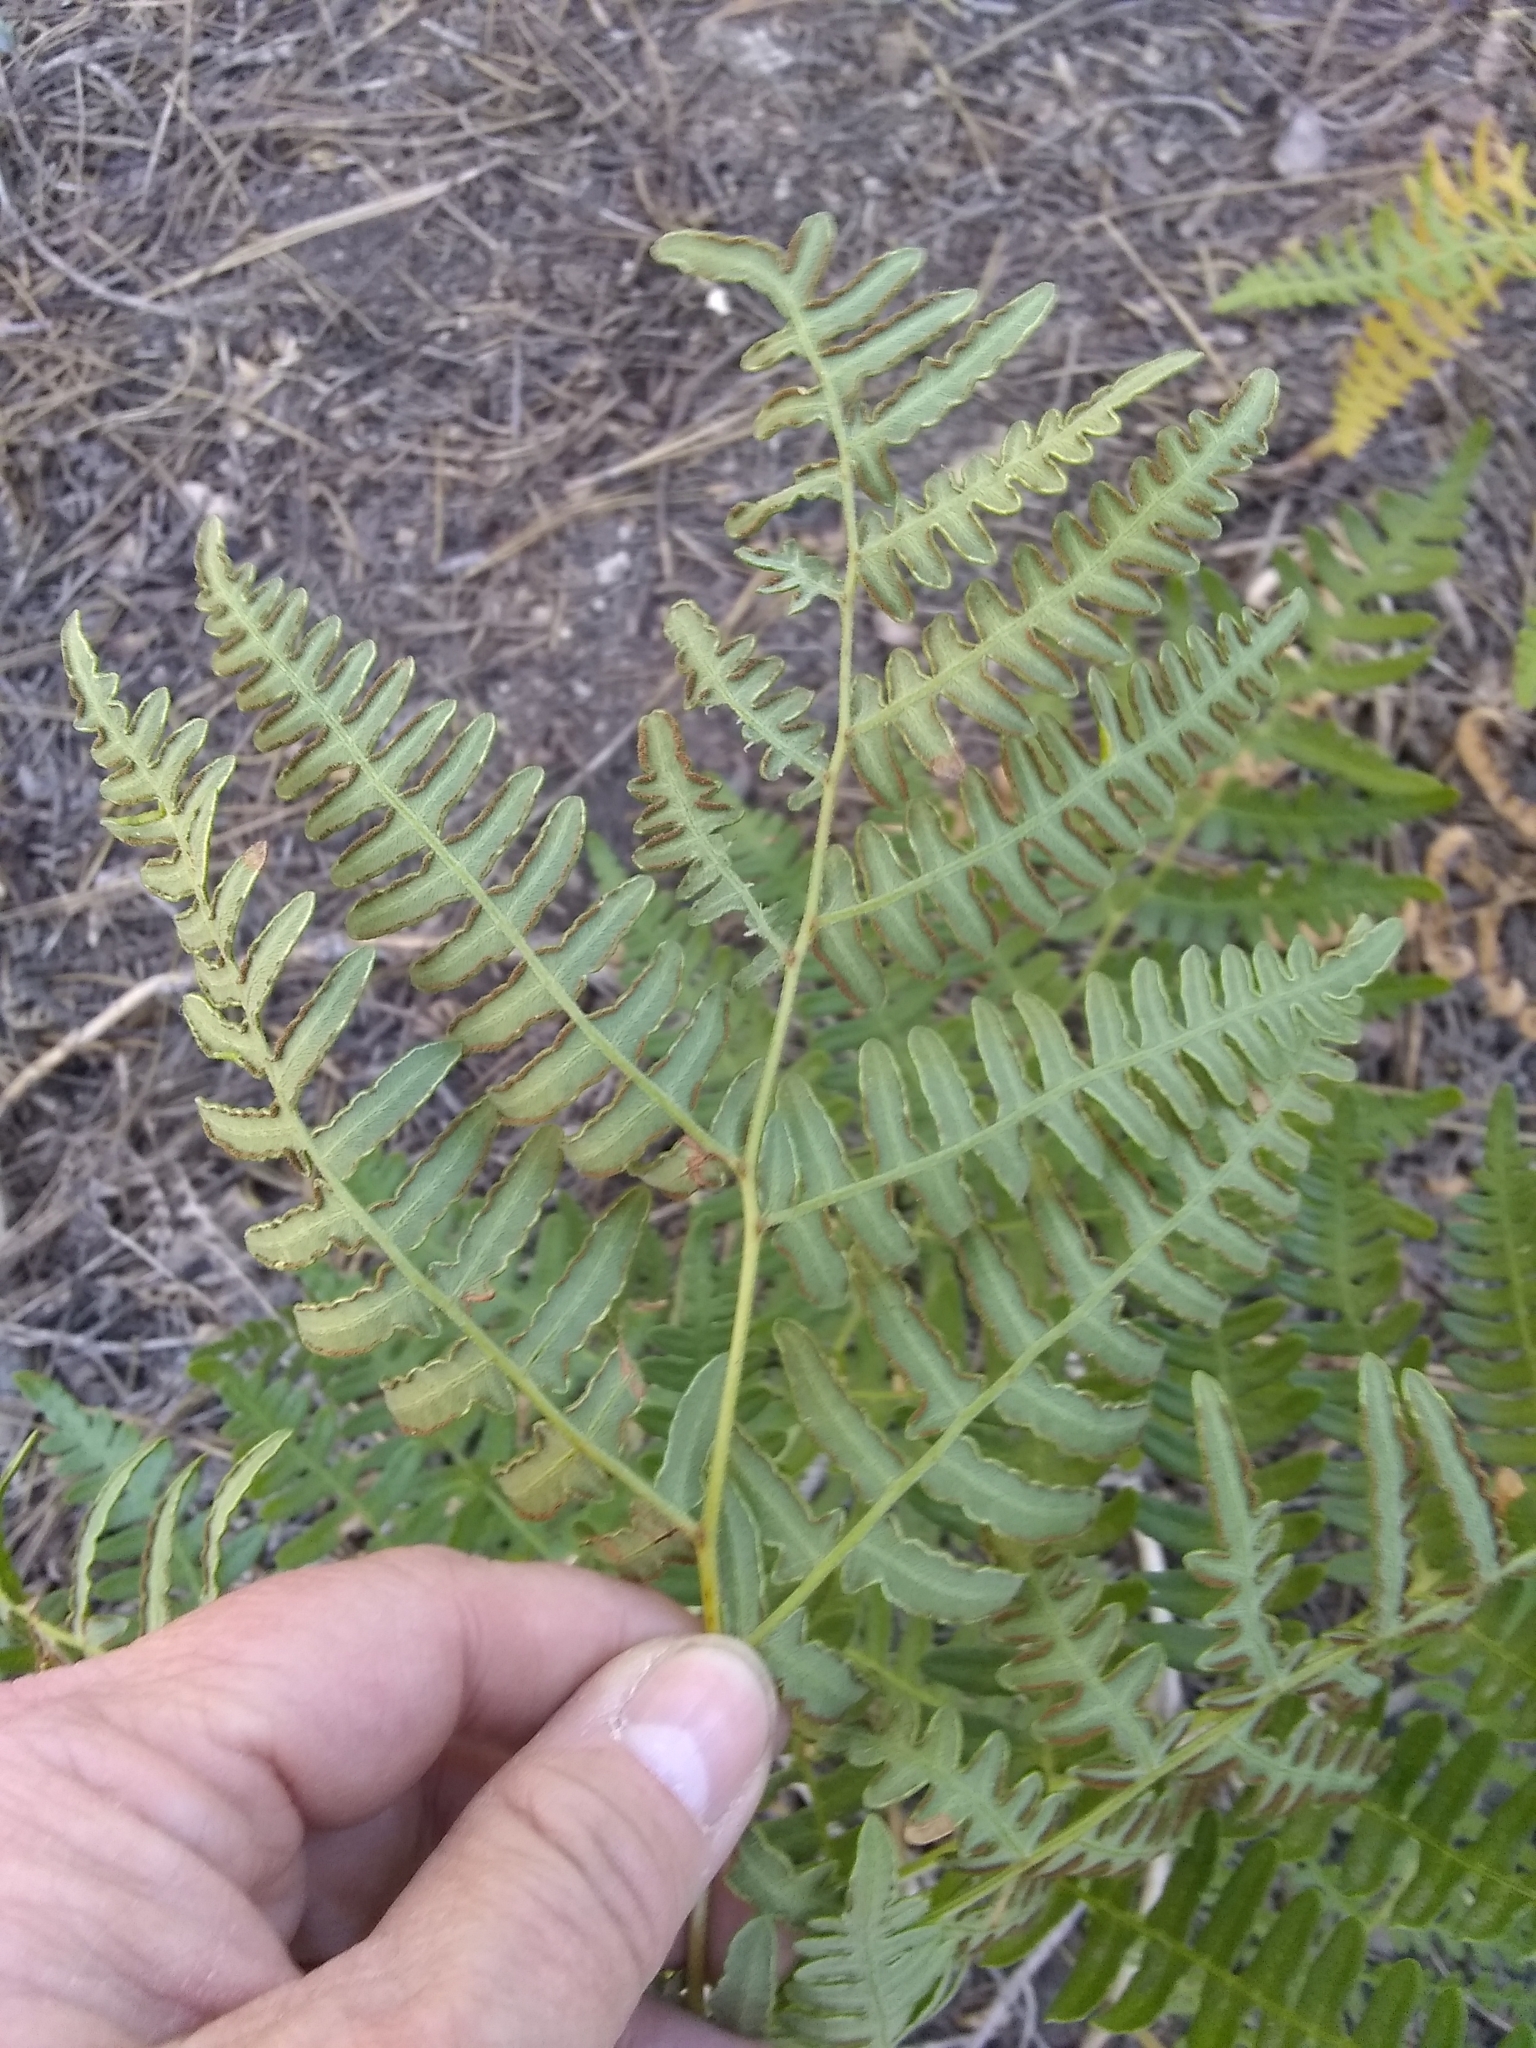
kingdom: Plantae
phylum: Tracheophyta
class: Polypodiopsida
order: Polypodiales
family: Dennstaedtiaceae
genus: Pteridium
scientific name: Pteridium aquilinum
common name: Bracken
